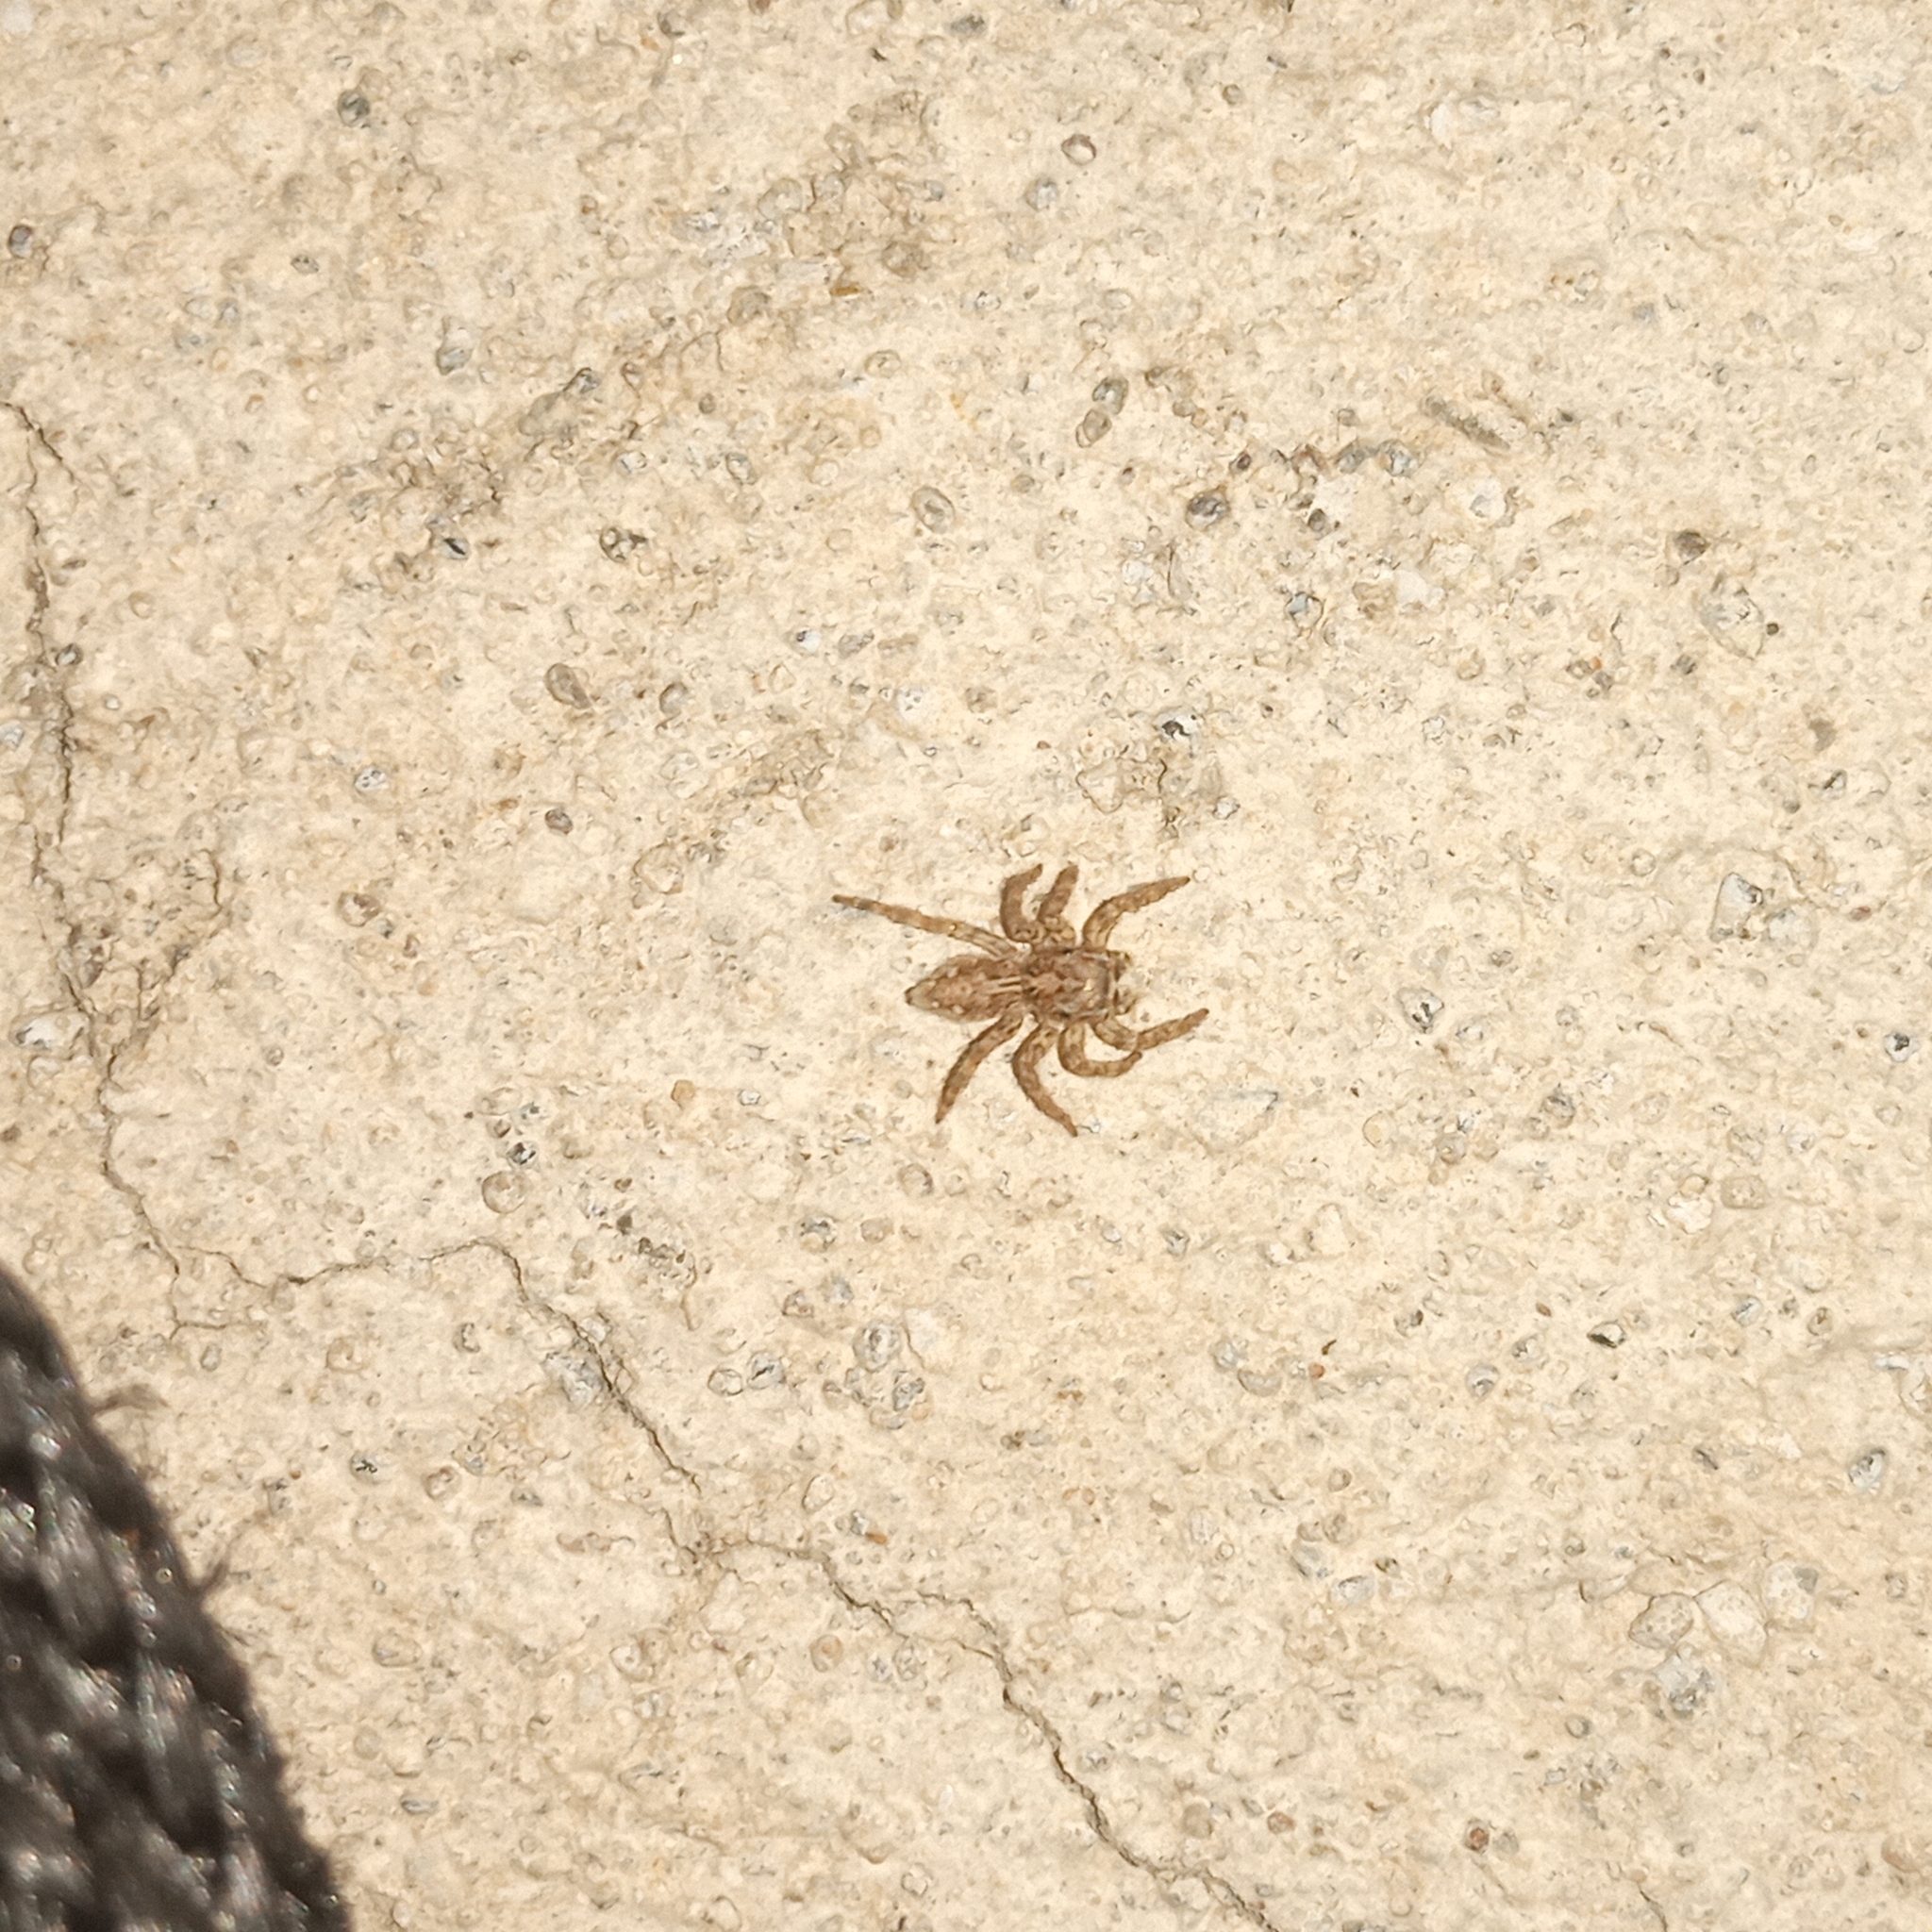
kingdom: Animalia
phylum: Arthropoda
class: Arachnida
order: Araneae
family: Salticidae
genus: Plexippus
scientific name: Plexippus petersi
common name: Jumping spider
